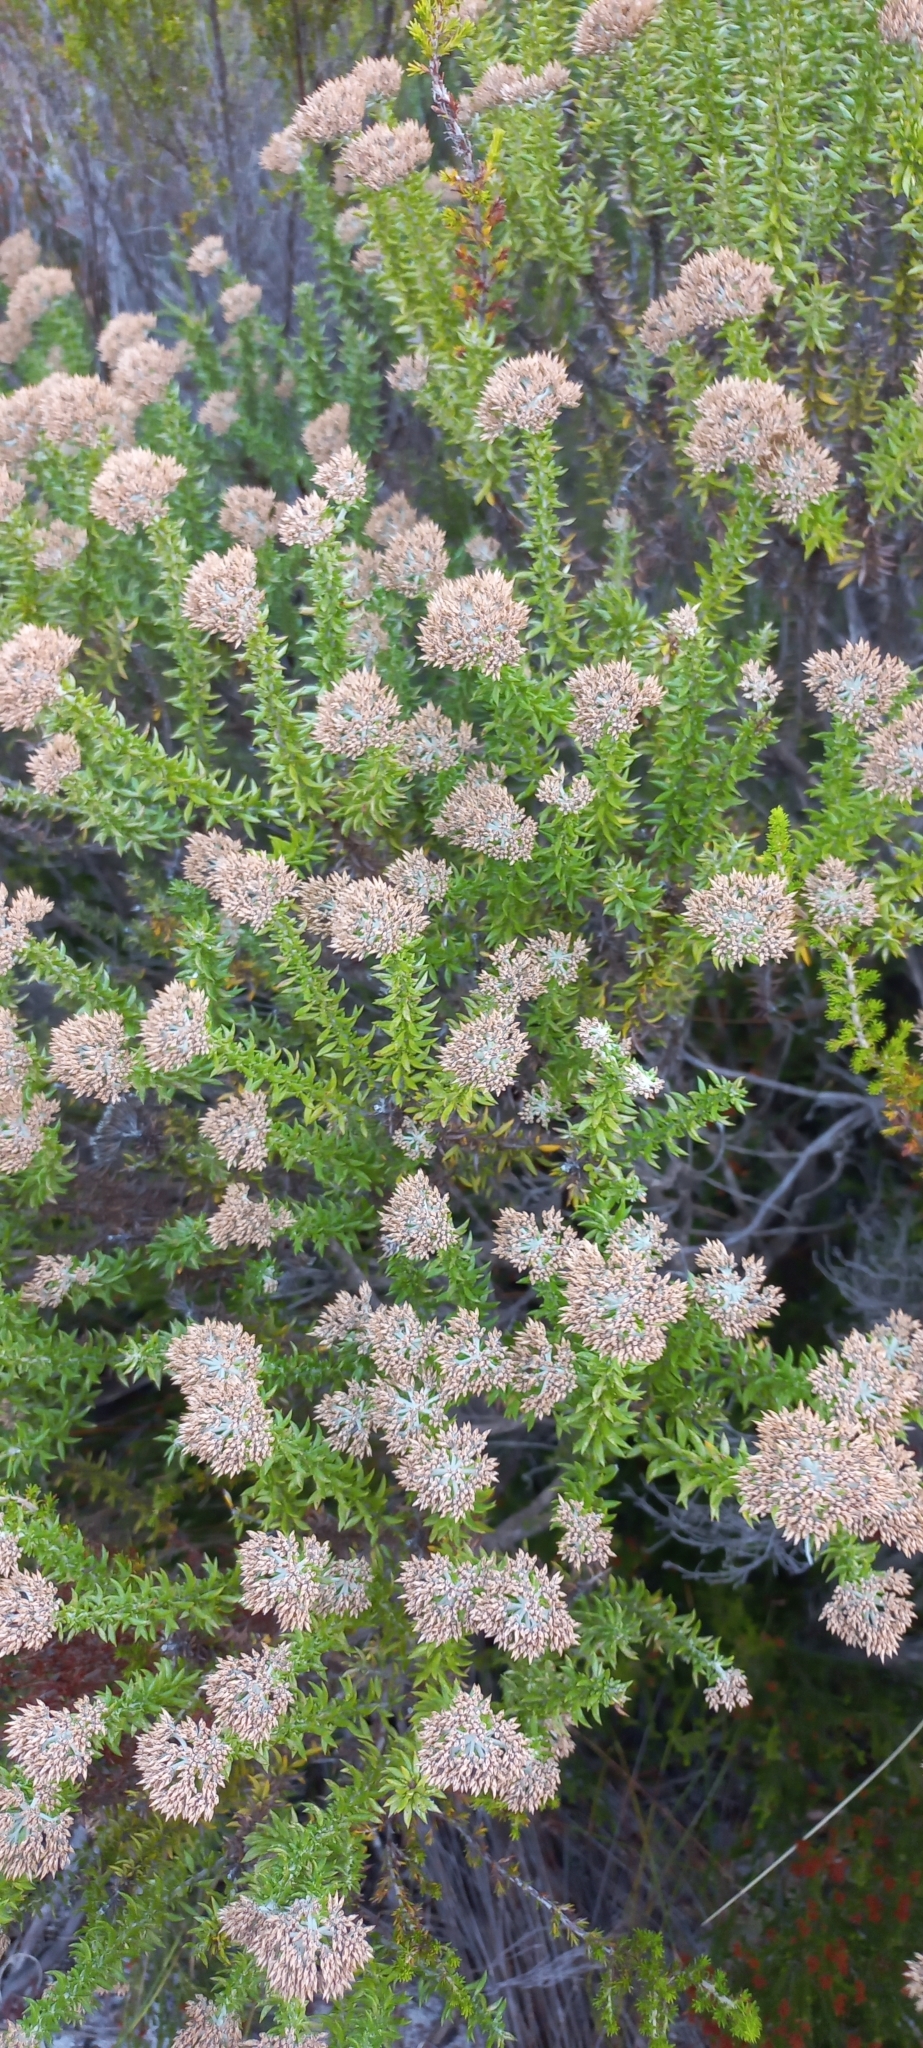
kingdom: Plantae
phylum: Tracheophyta
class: Magnoliopsida
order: Asterales
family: Asteraceae
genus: Metalasia
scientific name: Metalasia densa
